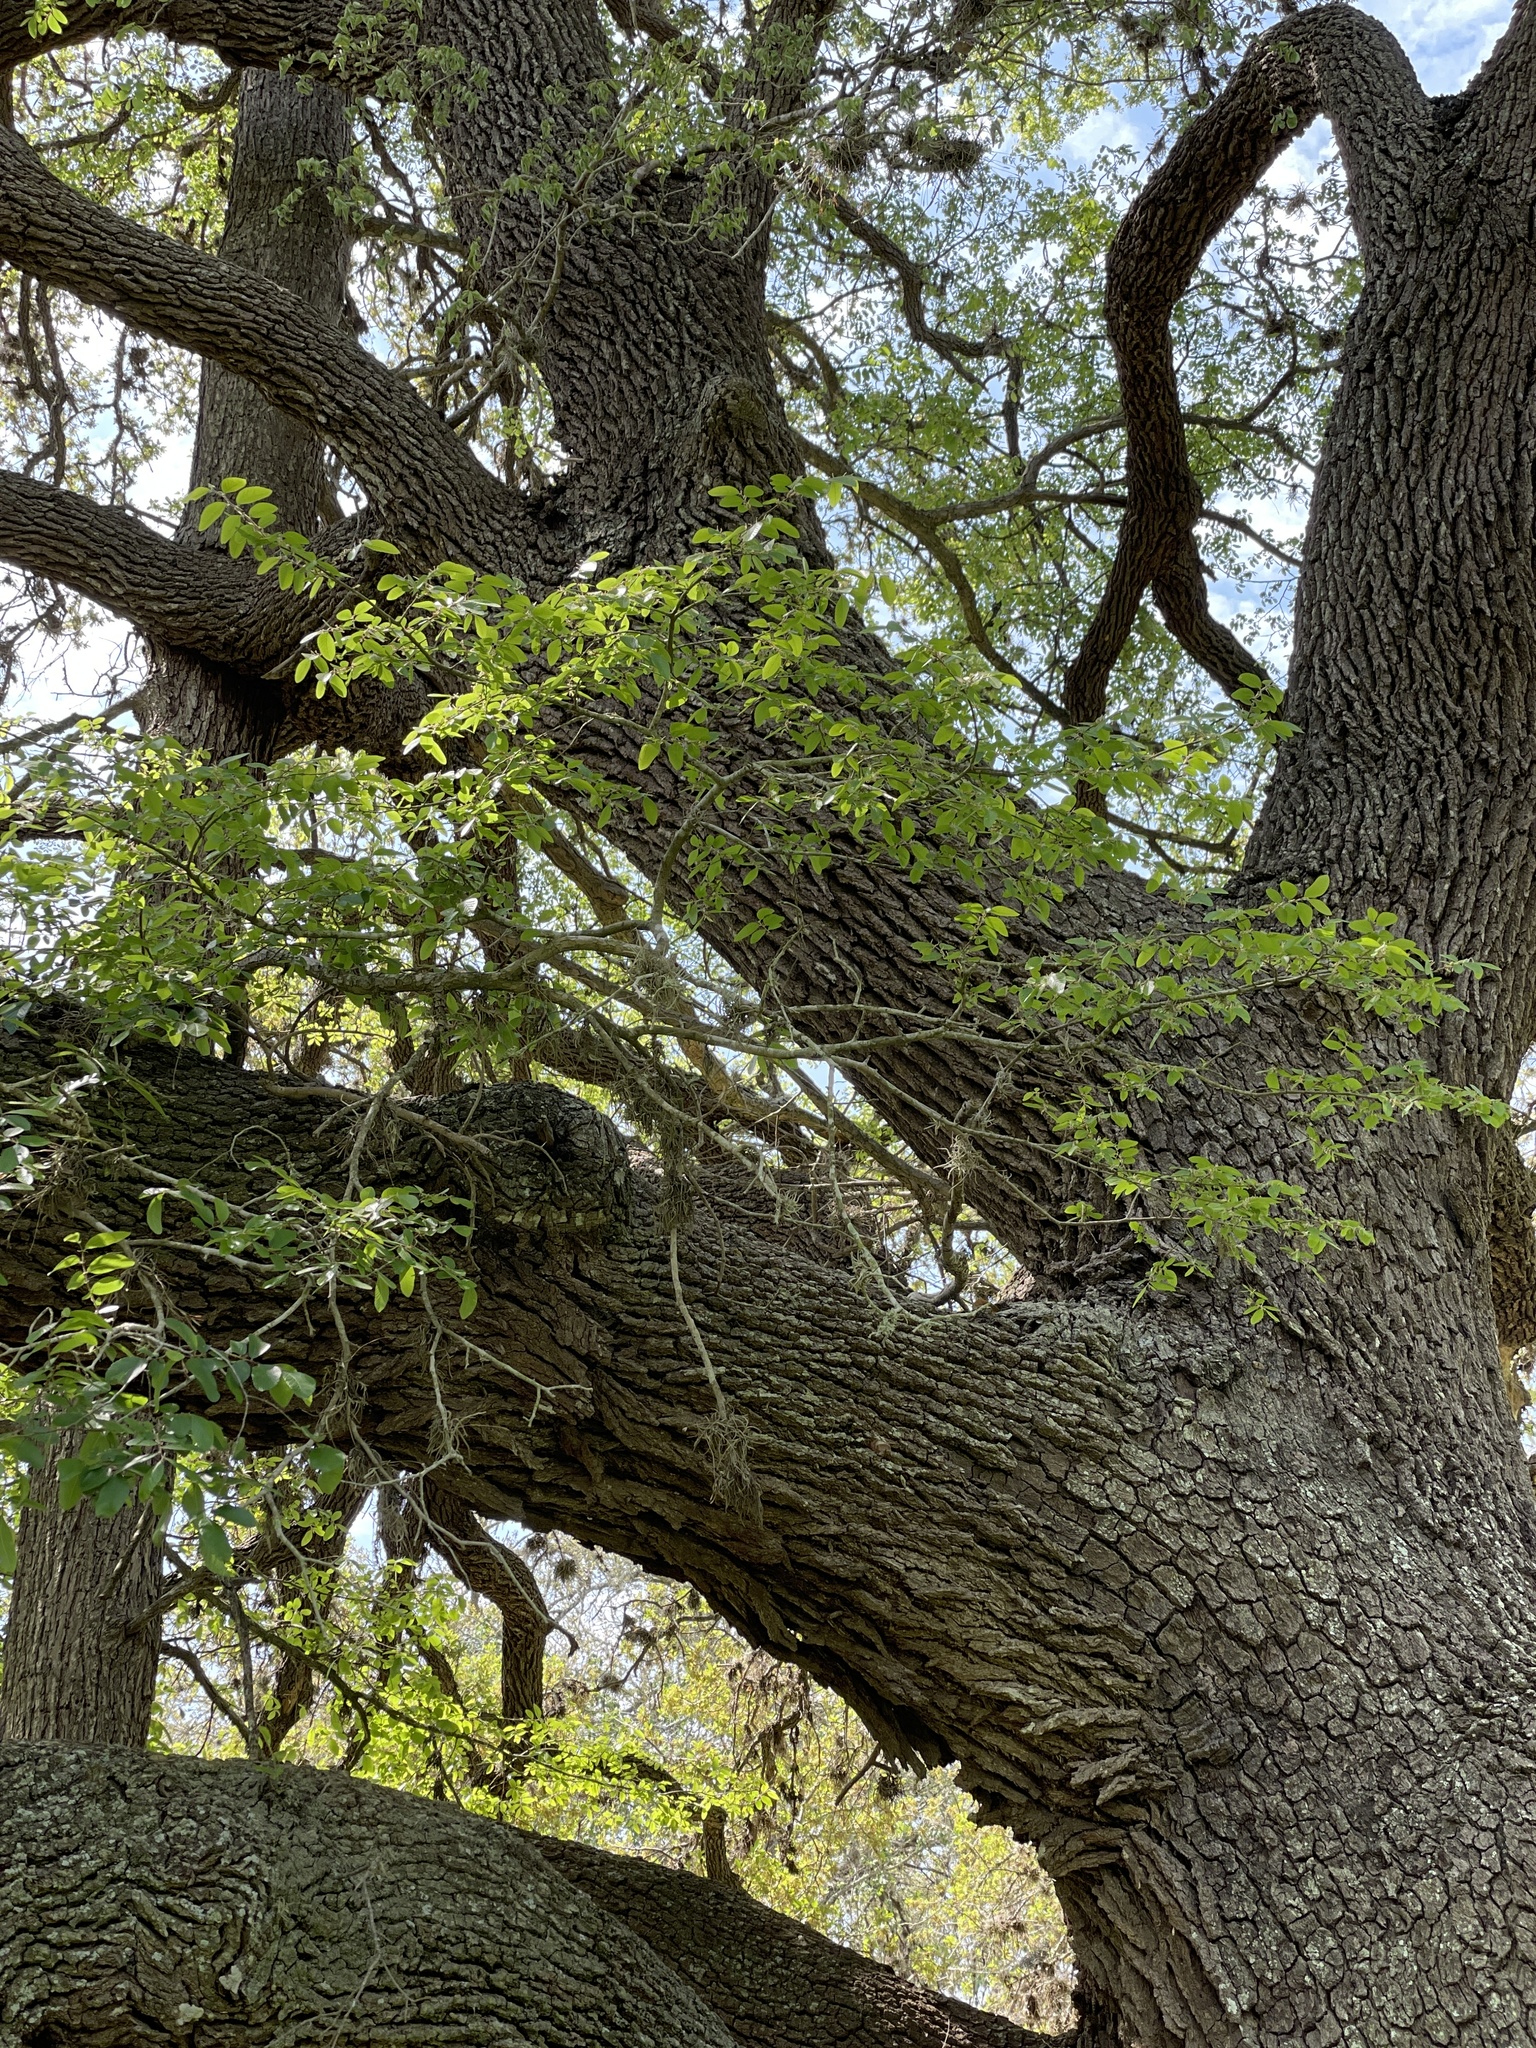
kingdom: Plantae
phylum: Tracheophyta
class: Magnoliopsida
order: Fagales
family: Fagaceae
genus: Quercus
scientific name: Quercus virginiana
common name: Southern live oak
